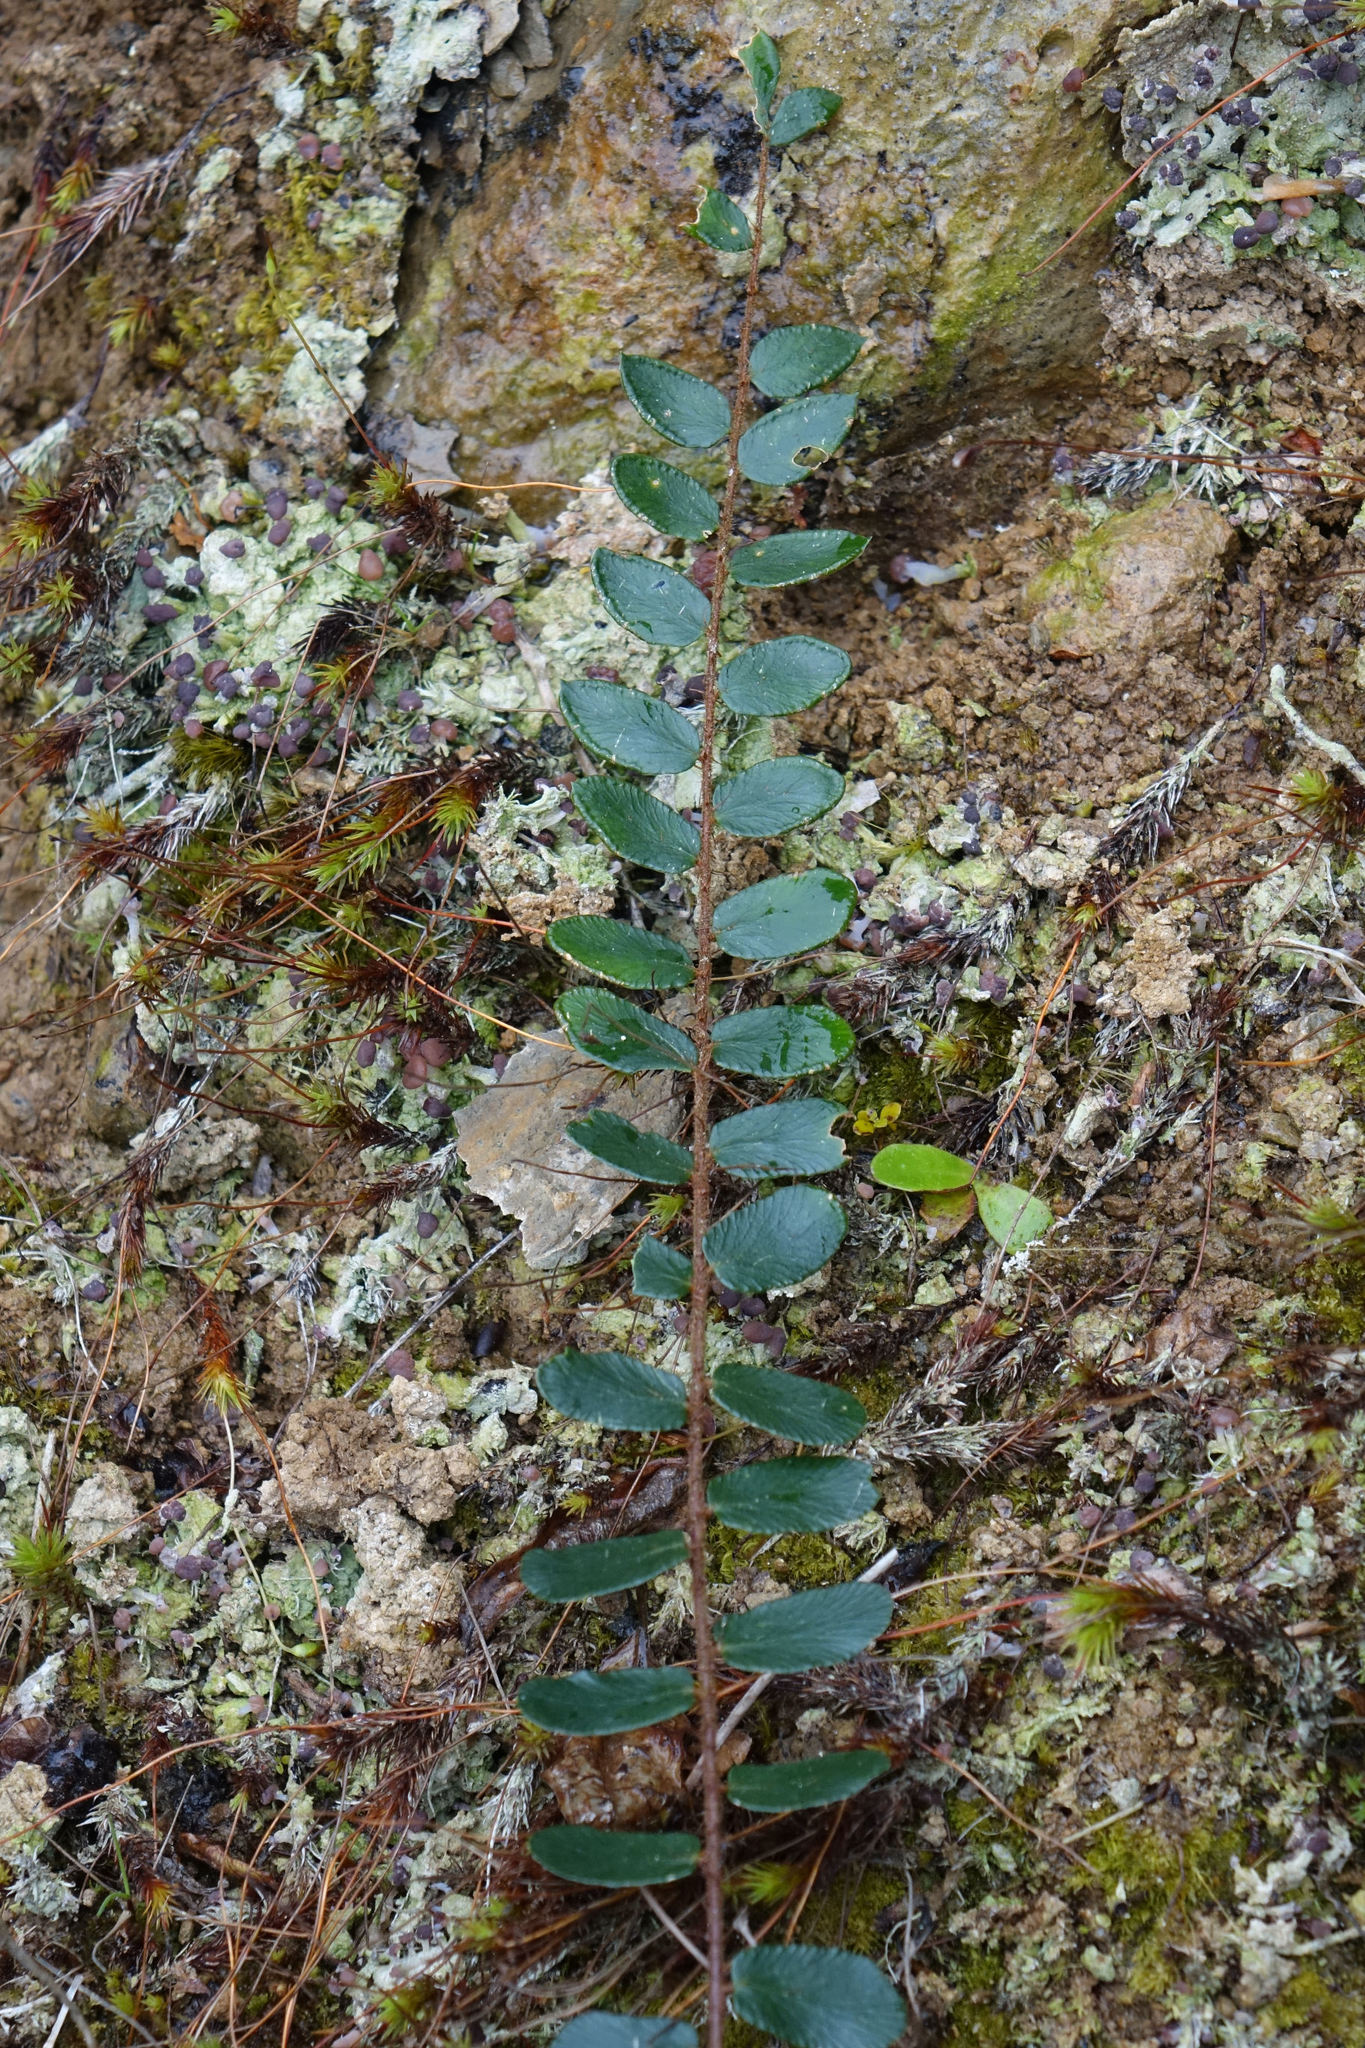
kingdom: Plantae
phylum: Tracheophyta
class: Polypodiopsida
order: Polypodiales
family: Pteridaceae
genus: Pellaea
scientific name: Pellaea rotundifolia
